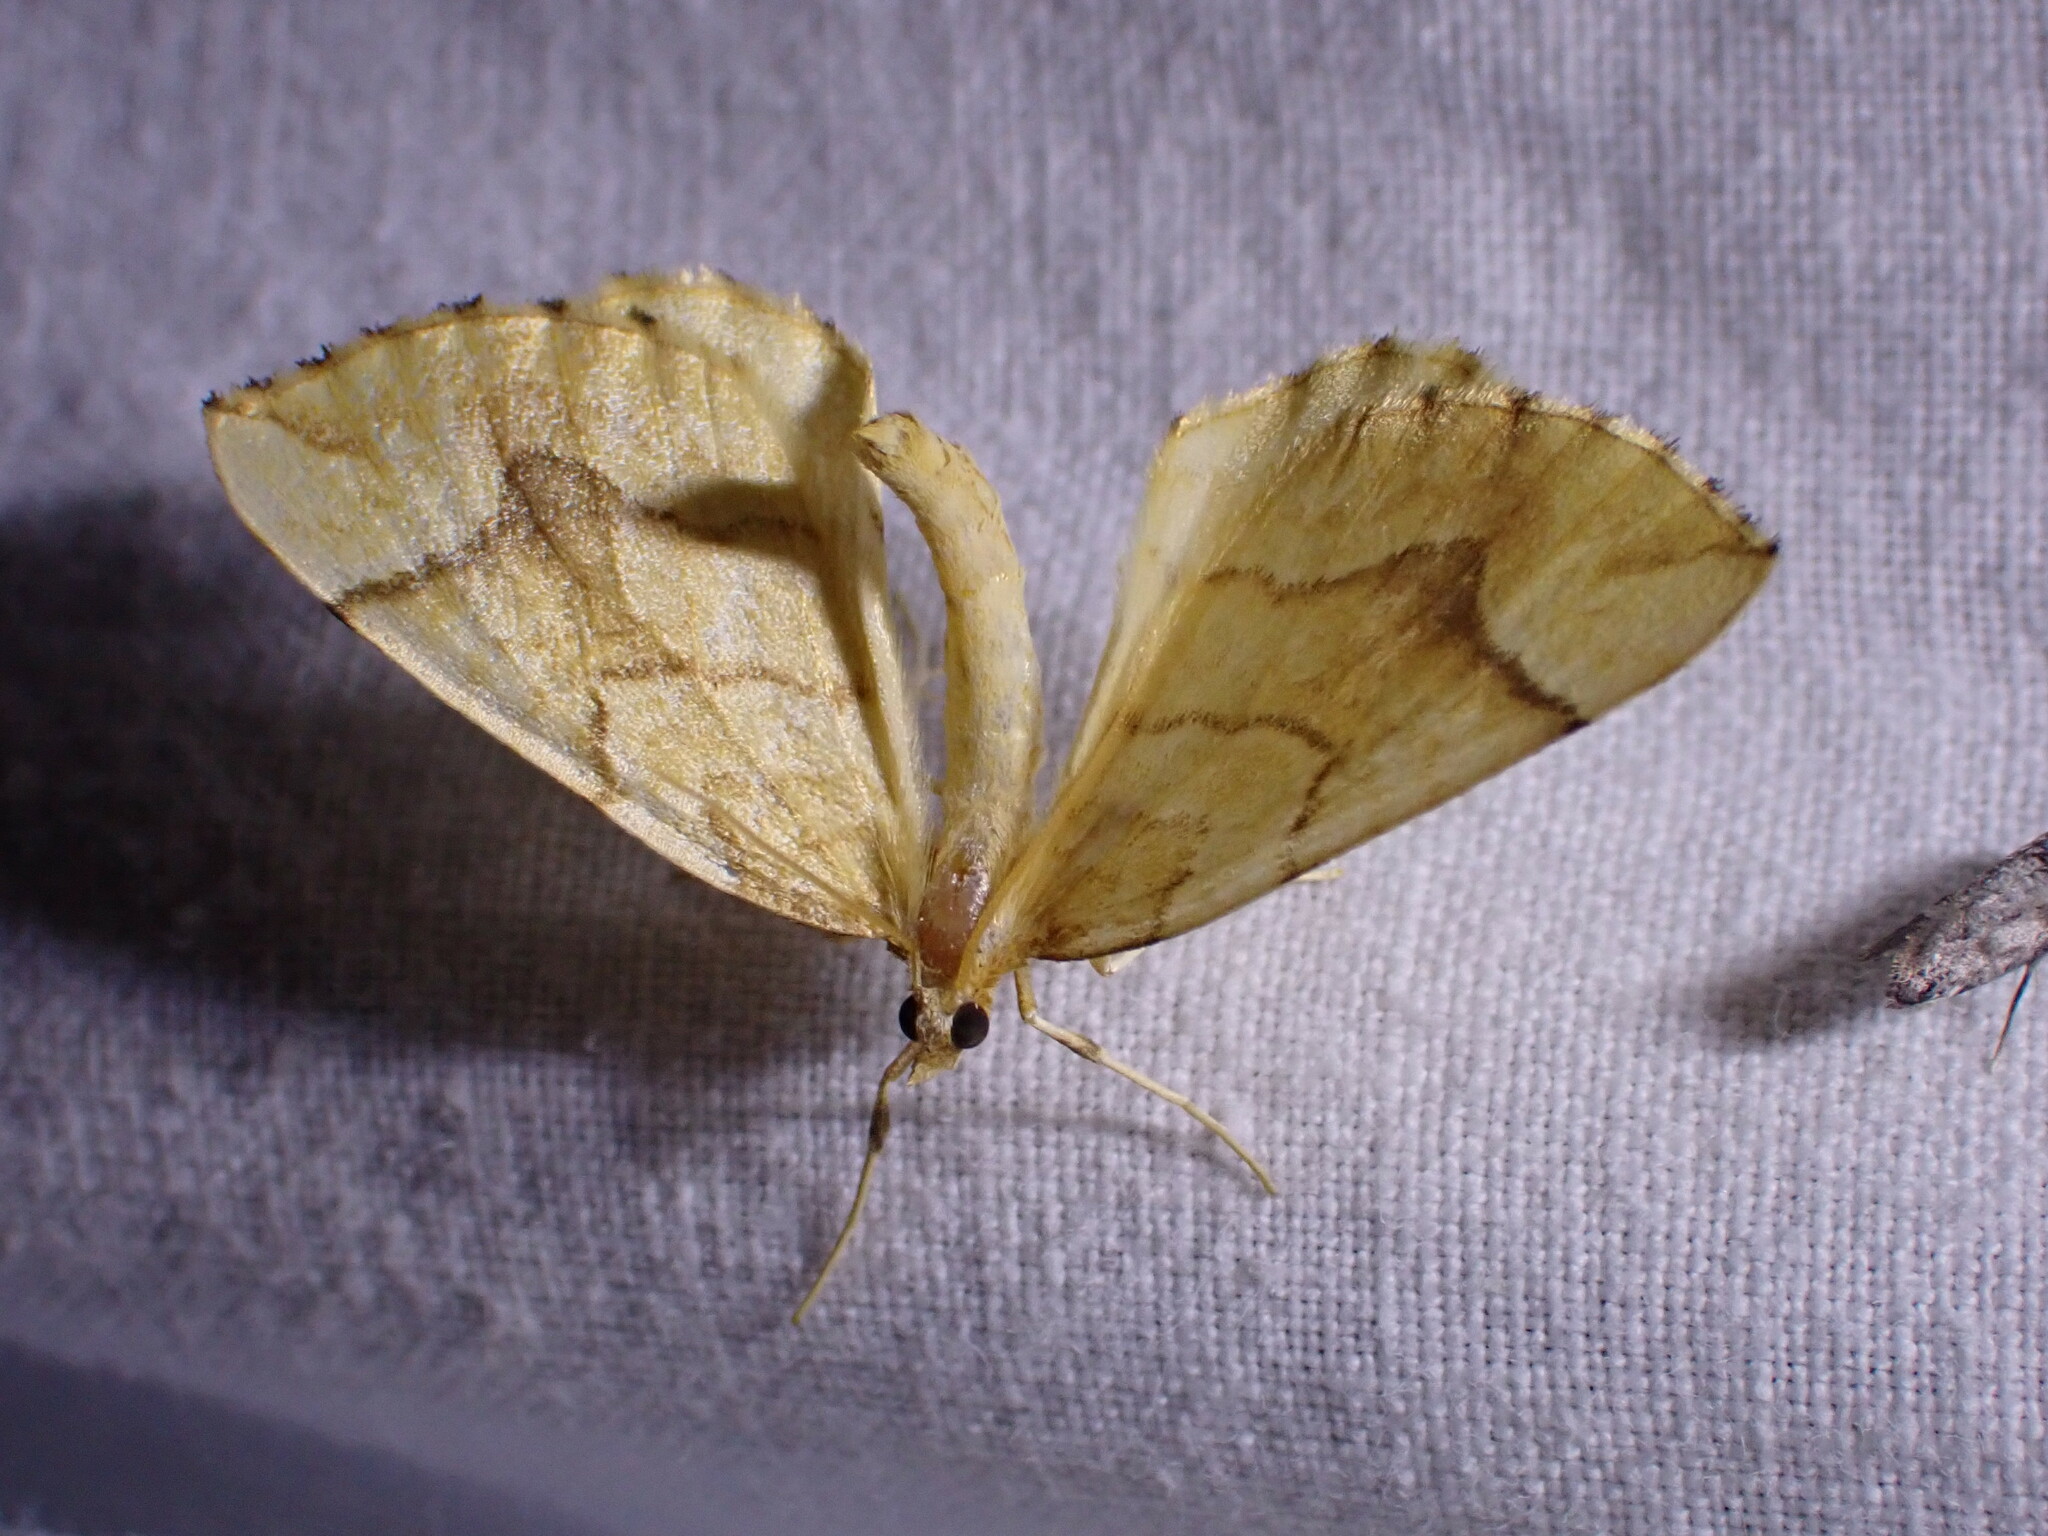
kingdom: Animalia
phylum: Arthropoda
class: Insecta
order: Lepidoptera
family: Geometridae
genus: Eulithis
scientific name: Eulithis mellinata
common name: Spinach
